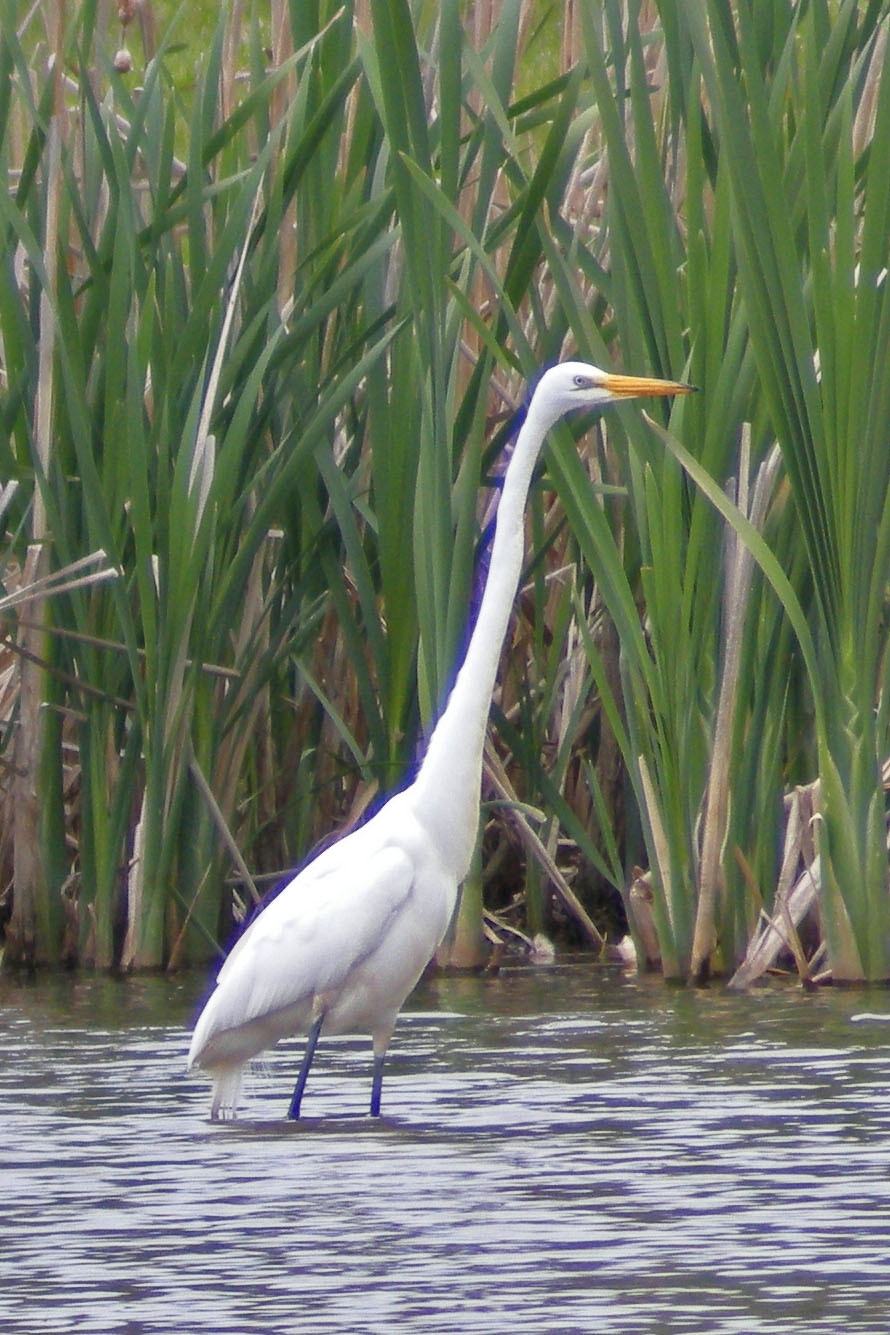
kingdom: Animalia
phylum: Chordata
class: Aves
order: Pelecaniformes
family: Ardeidae
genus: Ardea
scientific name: Ardea alba
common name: Great egret
